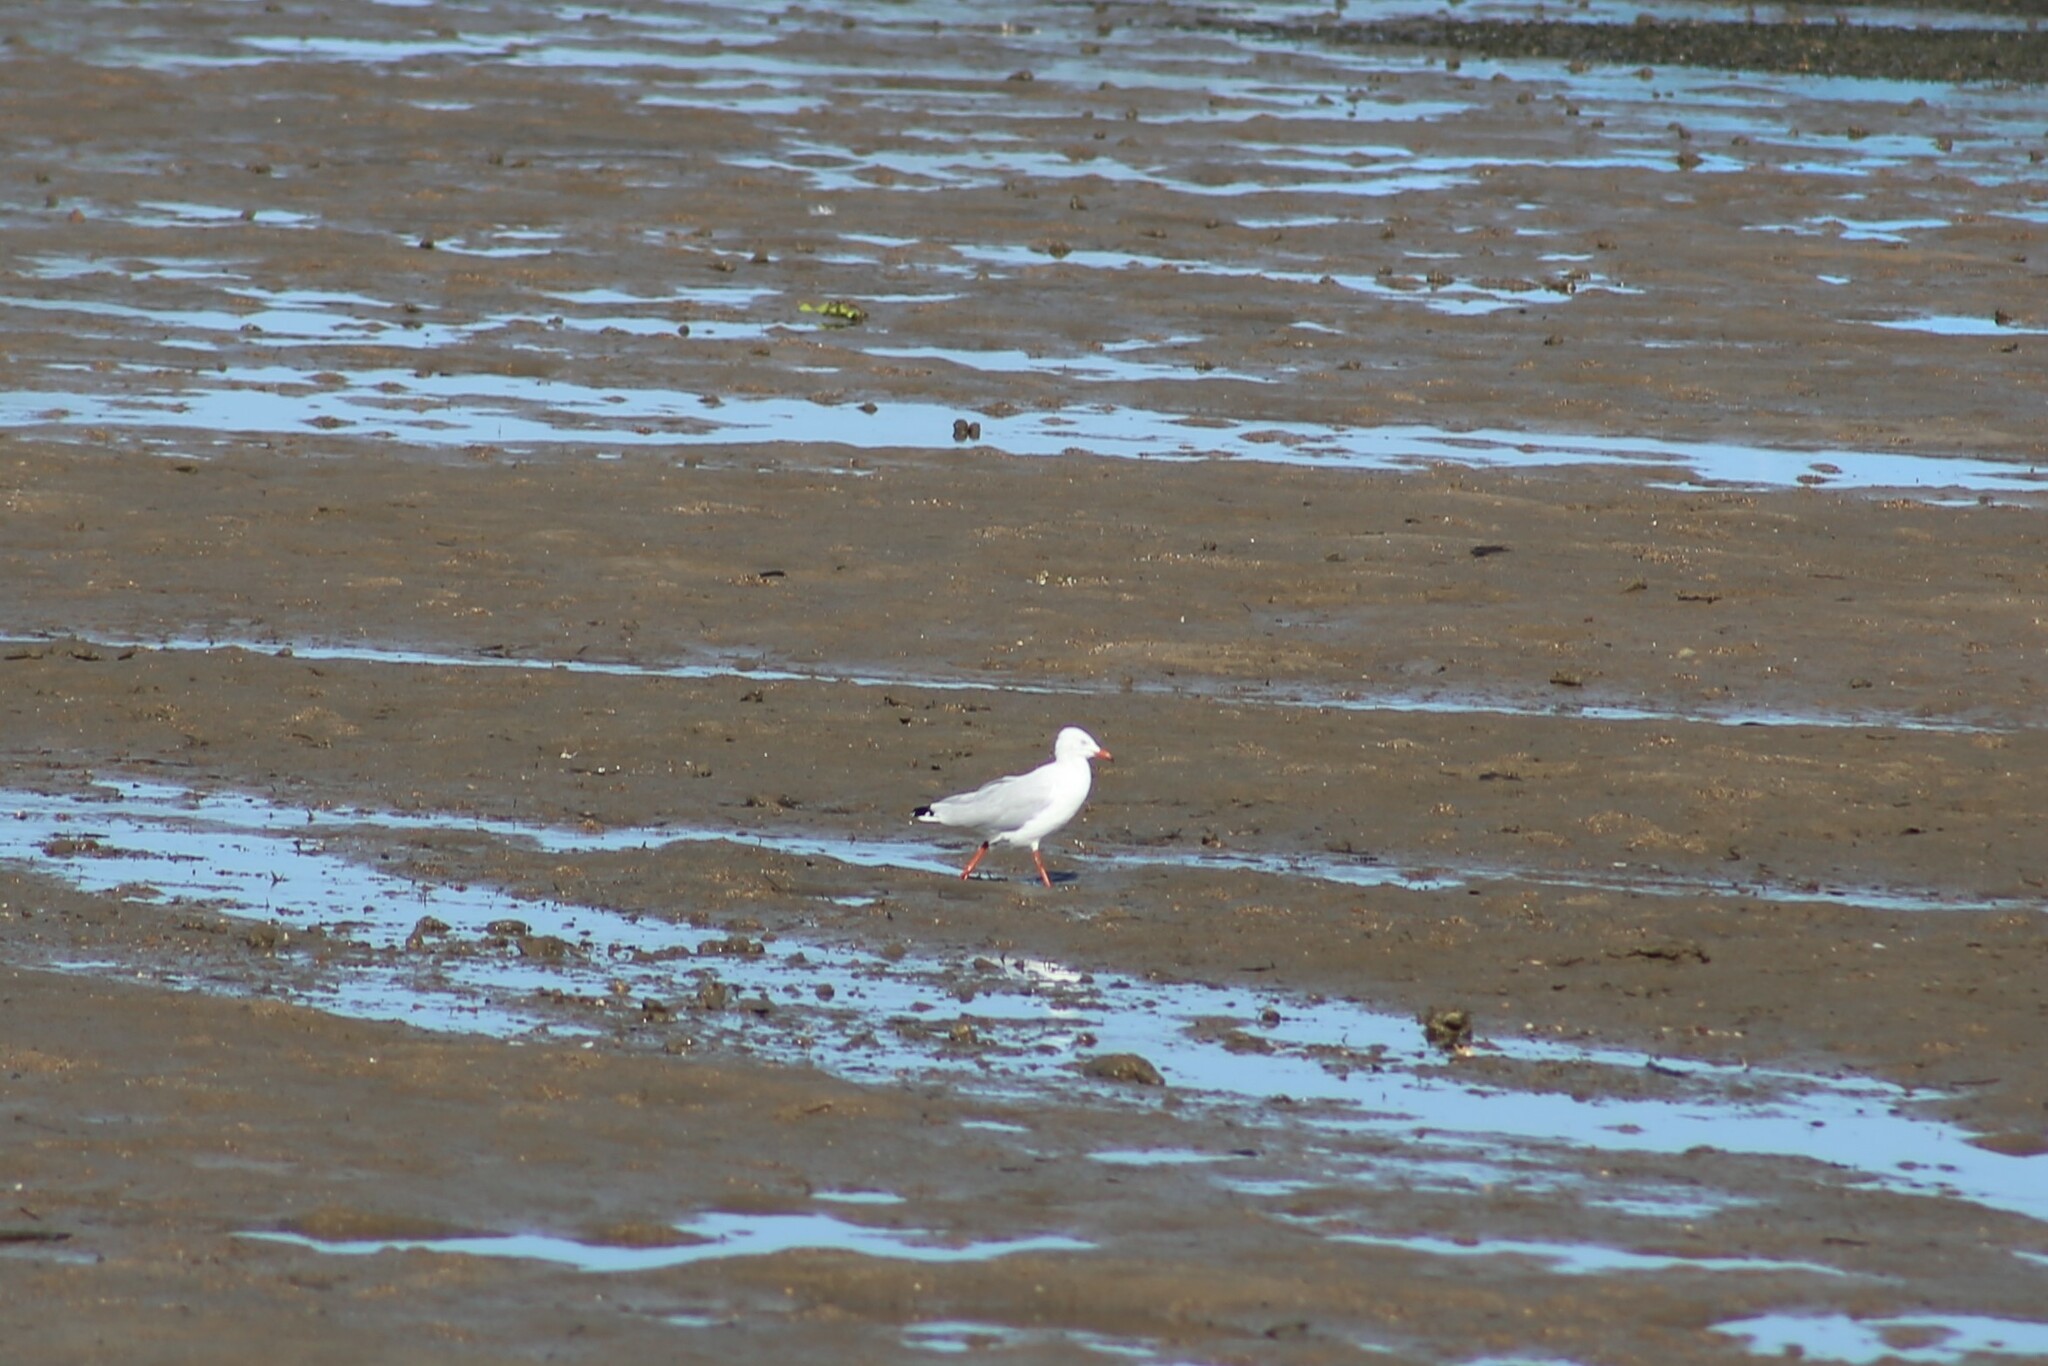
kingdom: Animalia
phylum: Chordata
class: Aves
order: Charadriiformes
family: Laridae
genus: Chroicocephalus
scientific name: Chroicocephalus novaehollandiae
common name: Silver gull
